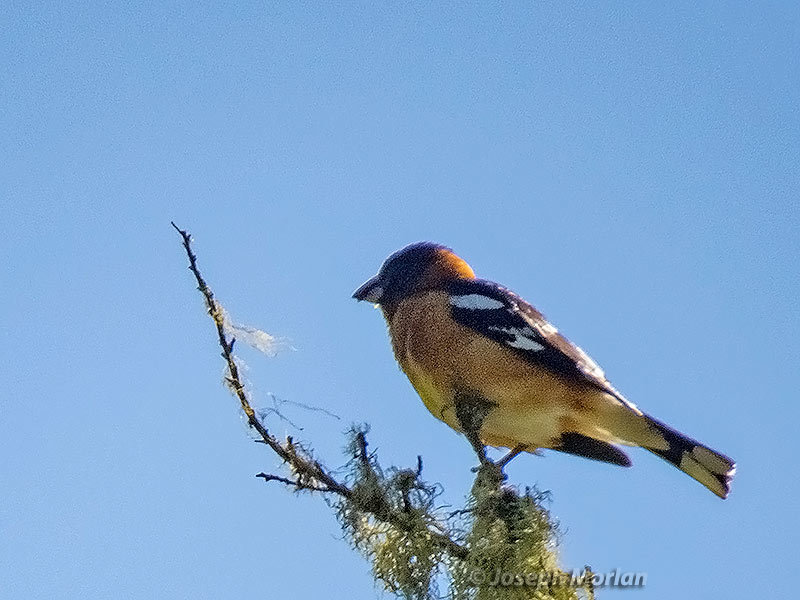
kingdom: Animalia
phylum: Chordata
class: Aves
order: Passeriformes
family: Cardinalidae
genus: Pheucticus
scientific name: Pheucticus melanocephalus
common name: Black-headed grosbeak
